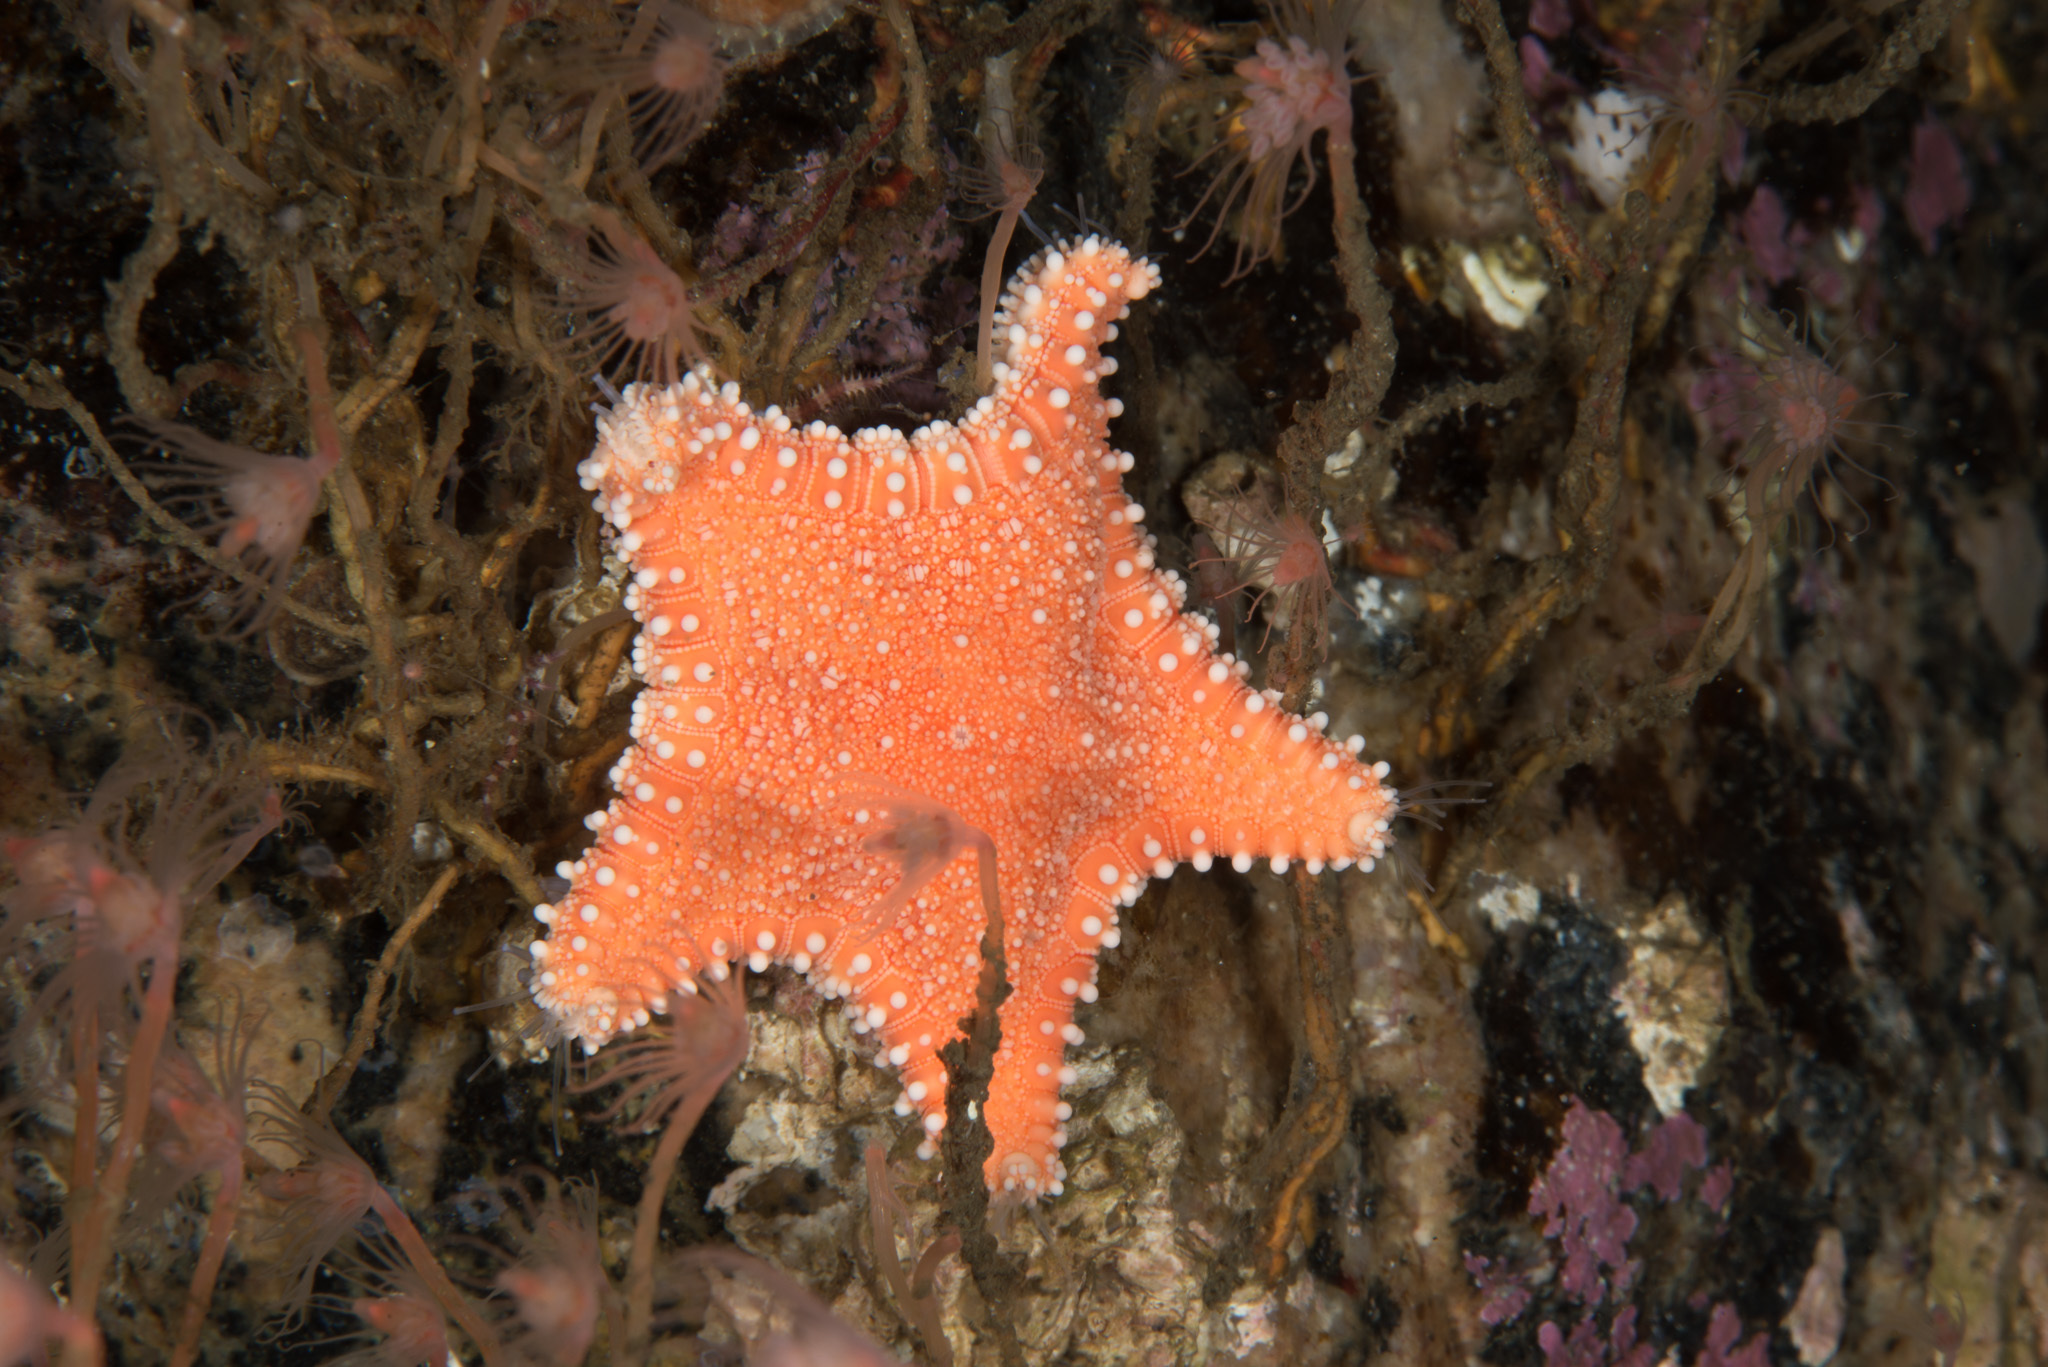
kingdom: Animalia
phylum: Echinodermata
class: Asteroidea
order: Valvatida
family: Goniasteridae
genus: Hippasteria
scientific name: Hippasteria phrygiana
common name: Arctic cushion star
